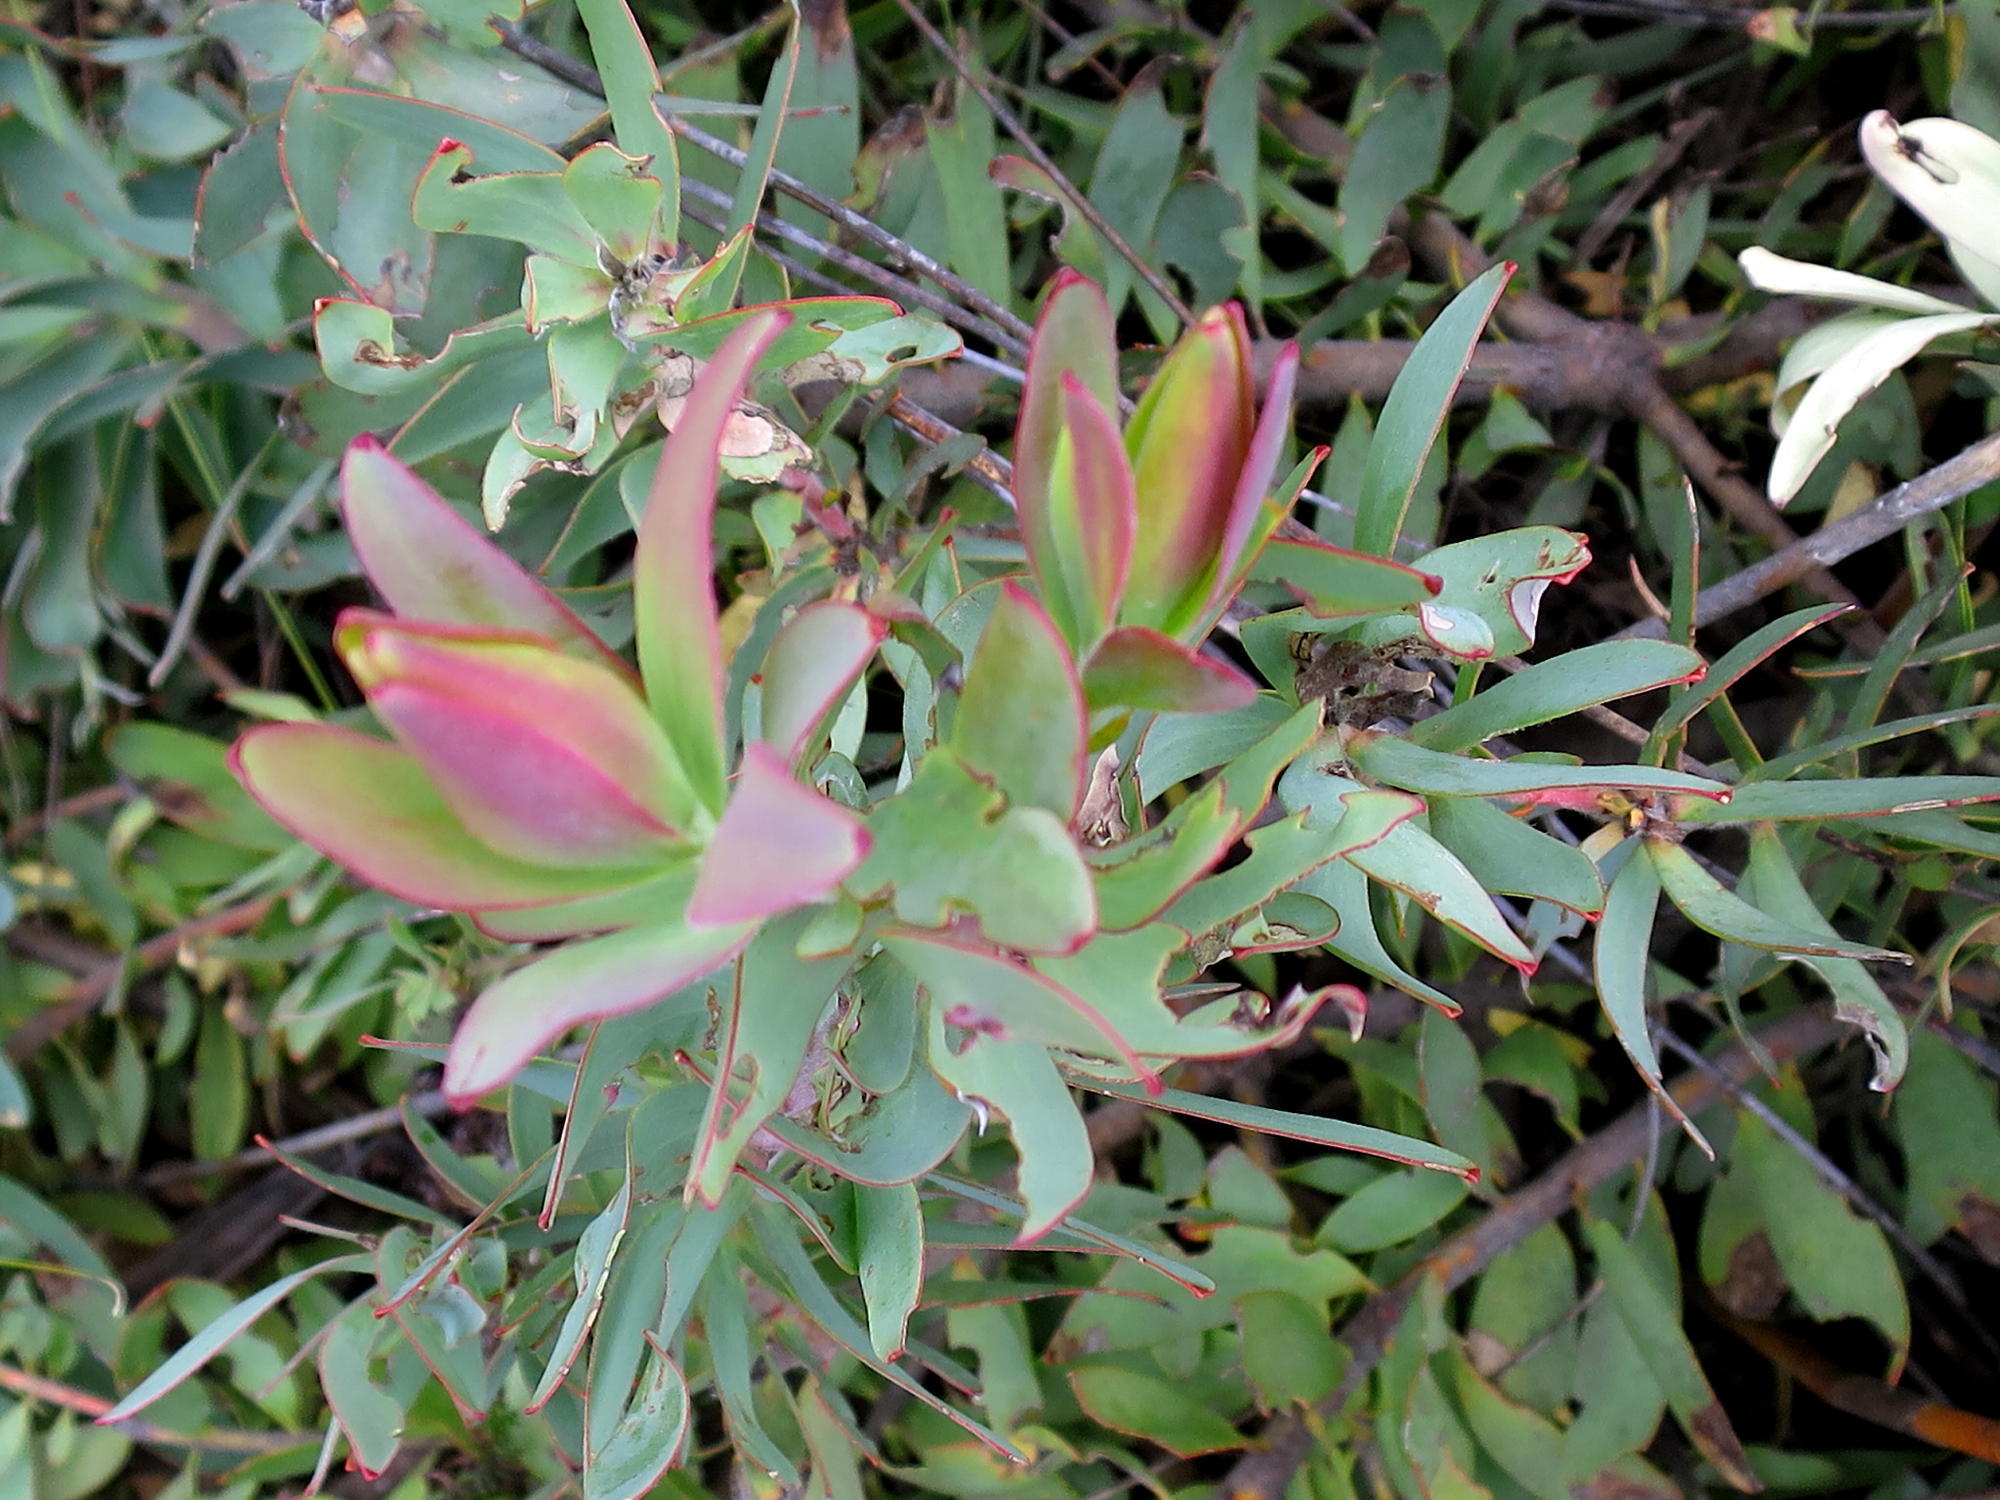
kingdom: Plantae
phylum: Tracheophyta
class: Magnoliopsida
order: Proteales
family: Proteaceae
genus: Leucadendron
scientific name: Leucadendron cordatum
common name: Droopy conebush
